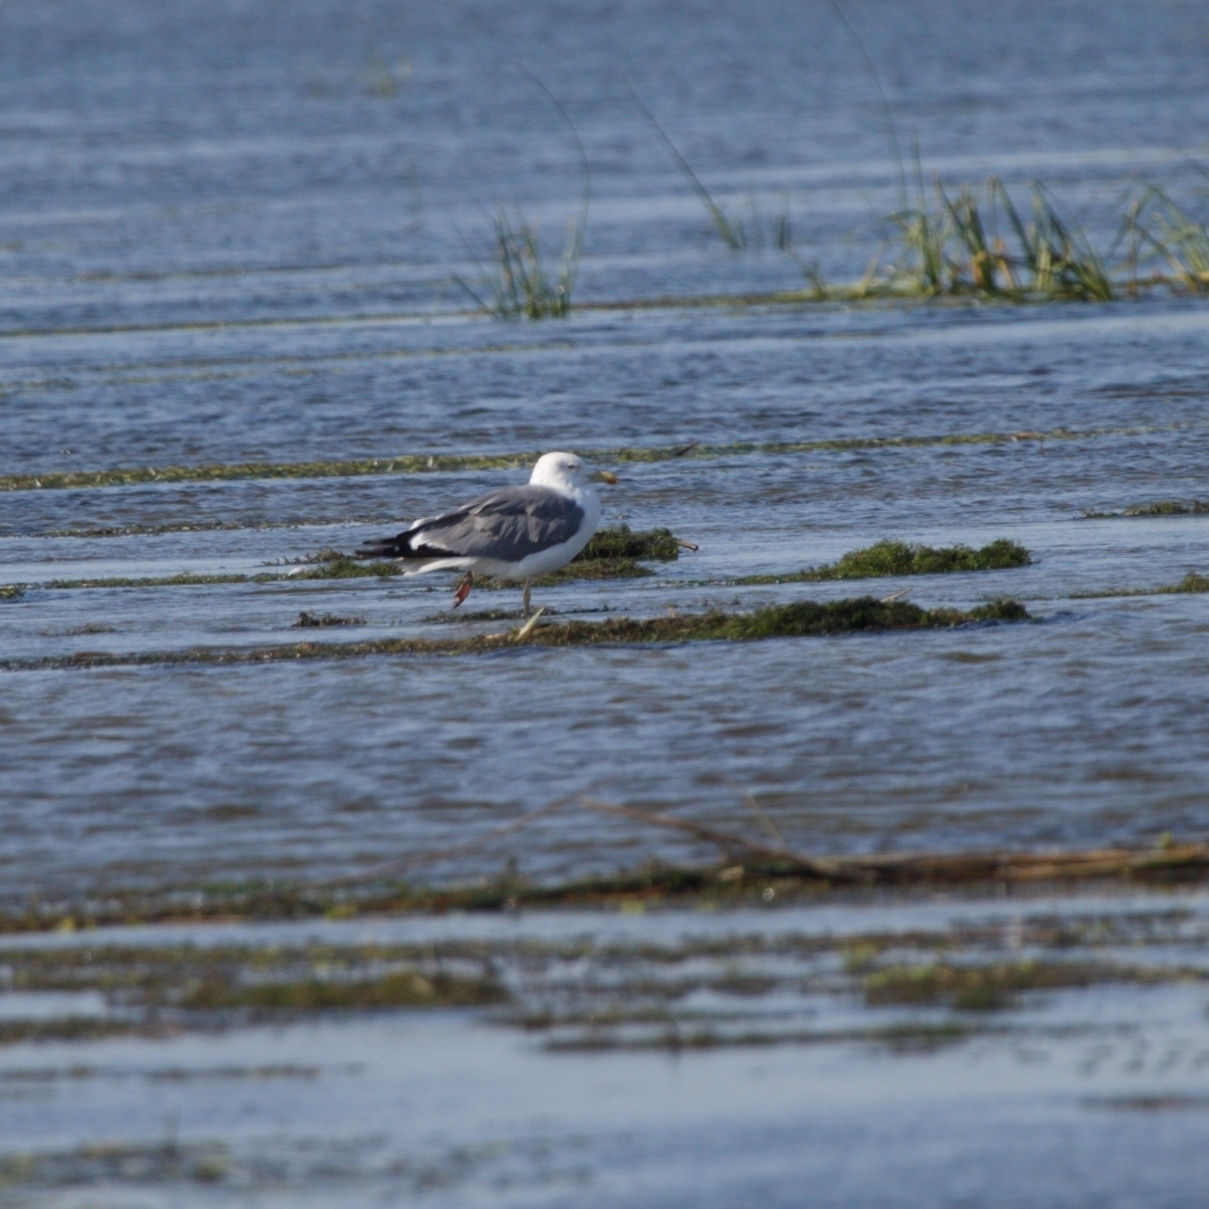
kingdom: Animalia
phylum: Chordata
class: Aves
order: Charadriiformes
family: Laridae
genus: Larus
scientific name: Larus fuscus
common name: Lesser black-backed gull
